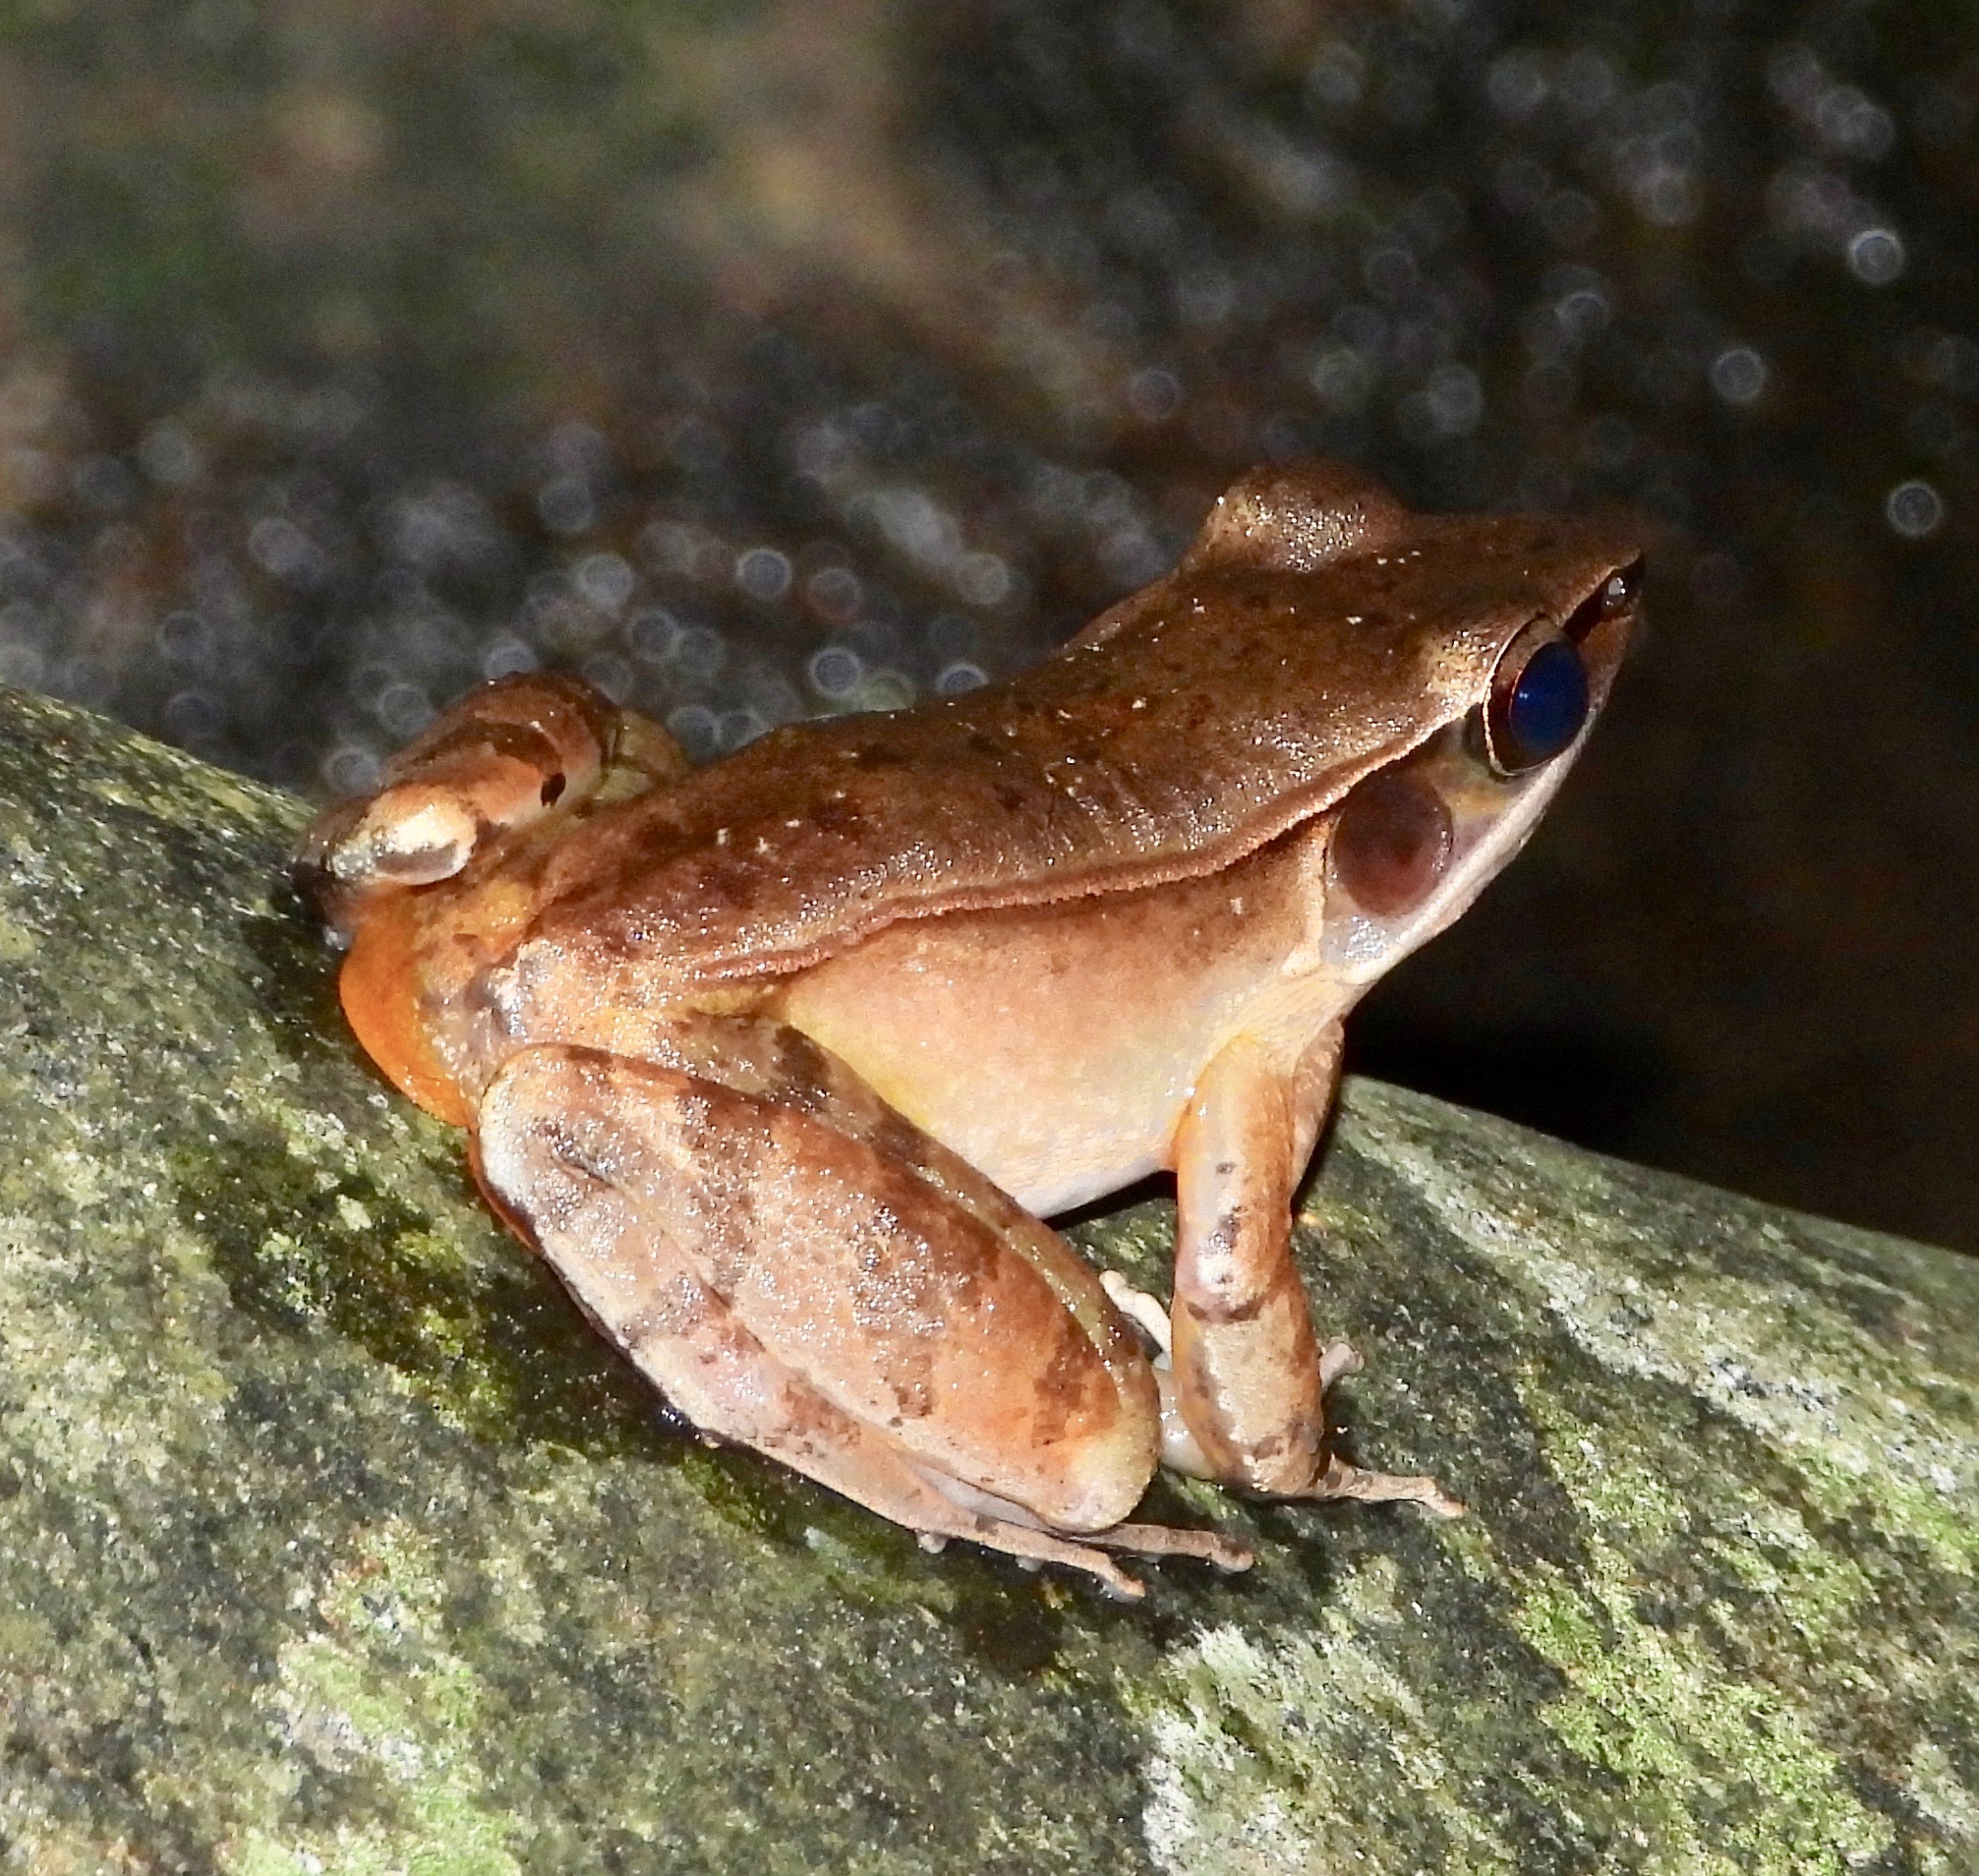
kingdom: Animalia
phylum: Chordata
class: Amphibia
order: Anura
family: Ranidae
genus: Indosylvirana
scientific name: Indosylvirana temporalis
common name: Günther's golden-backed frog
